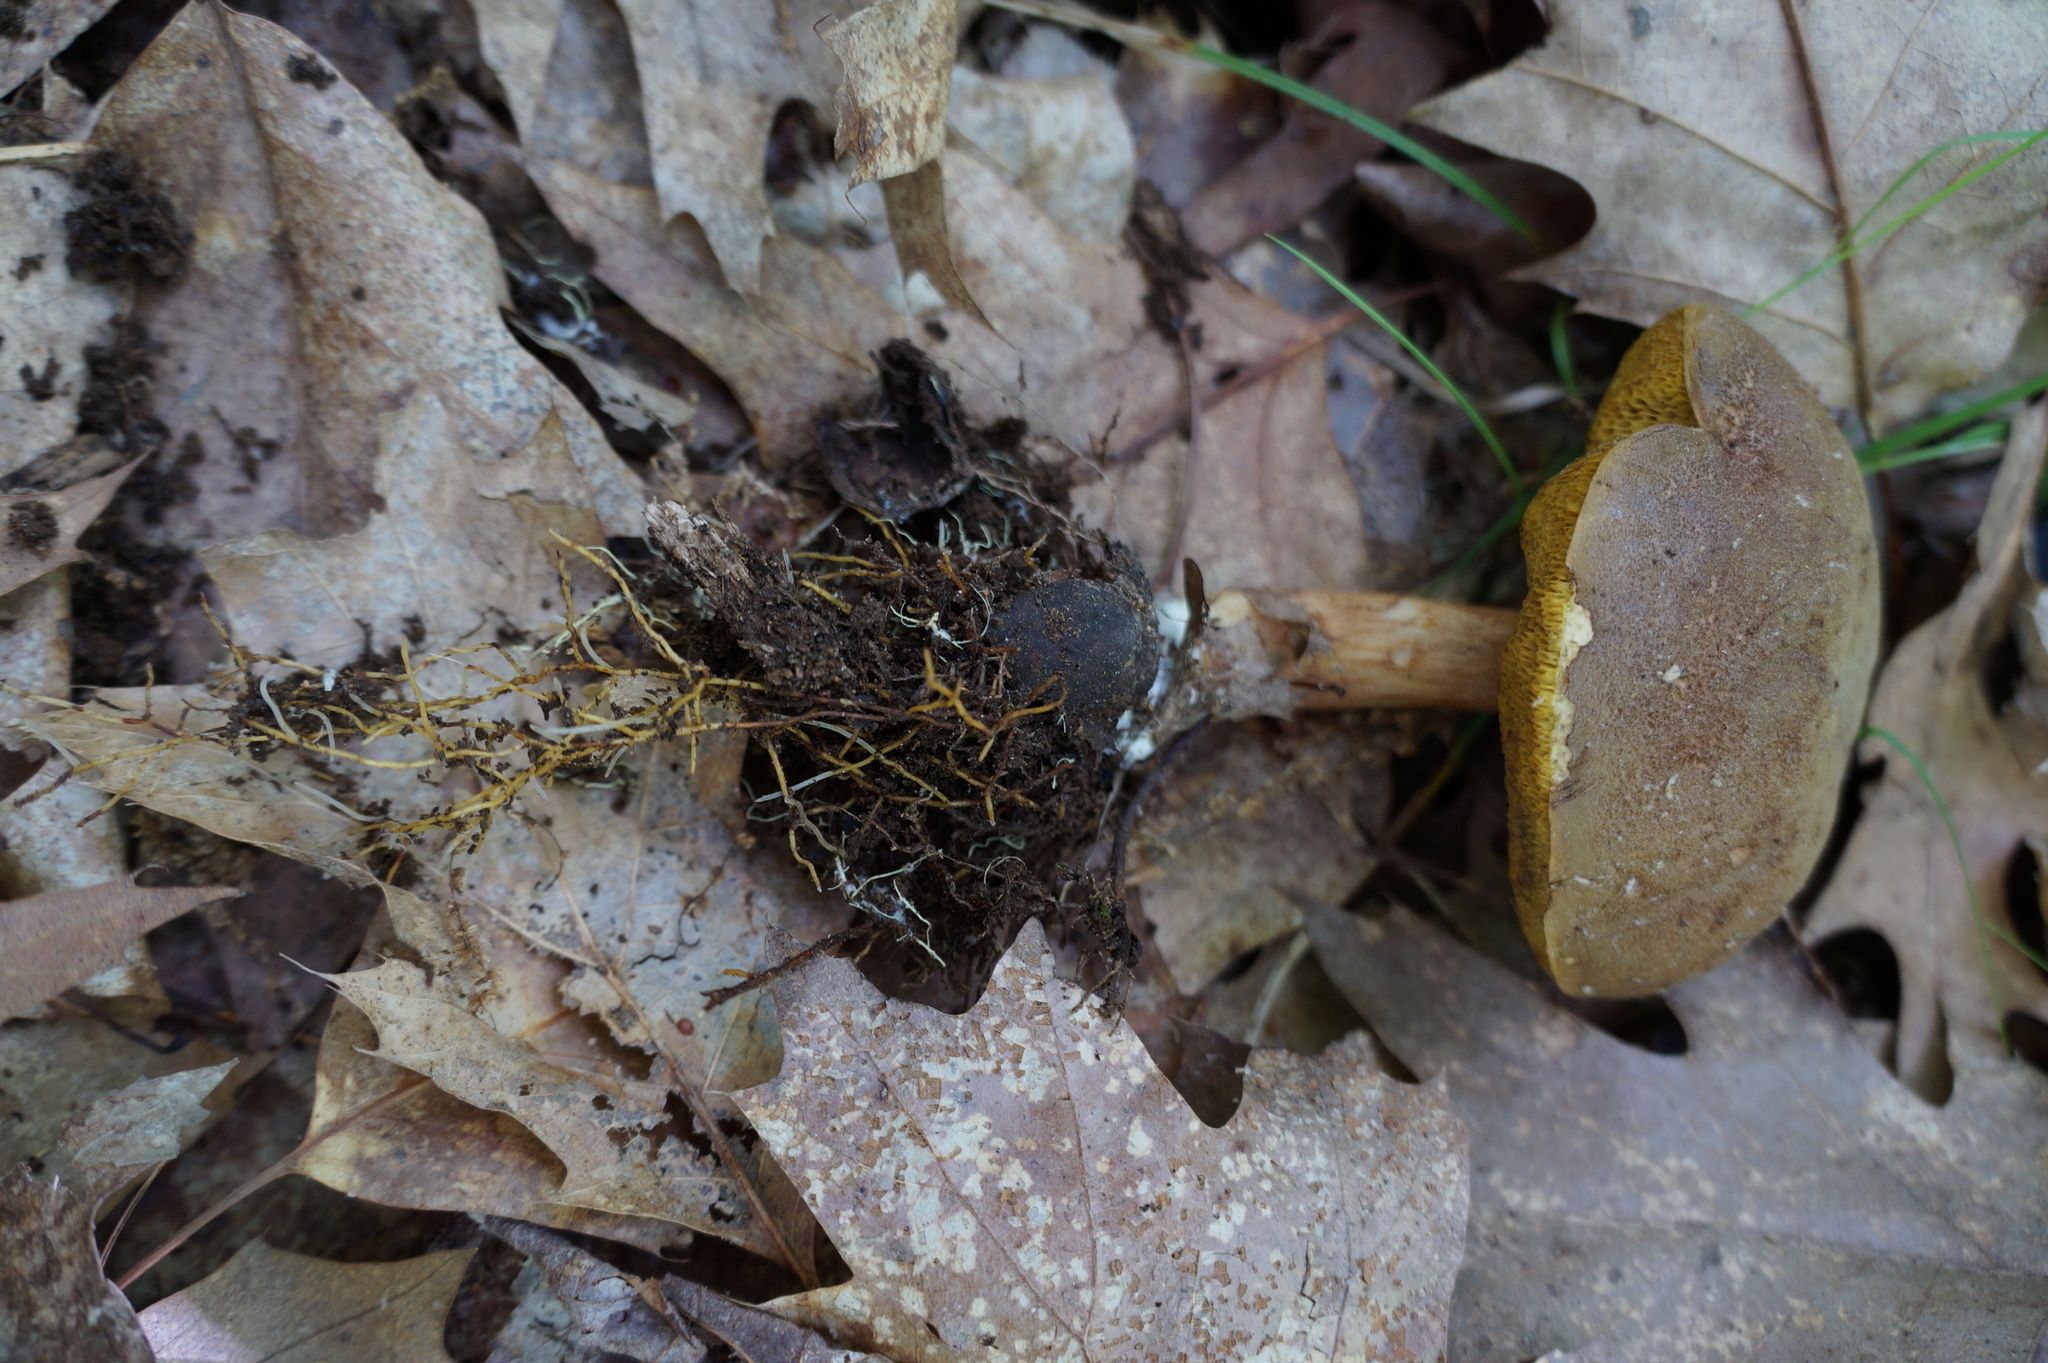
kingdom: Fungi
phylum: Basidiomycota
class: Agaricomycetes
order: Boletales
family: Boletaceae
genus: Xerocomus
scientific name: Xerocomus subtomentosus
